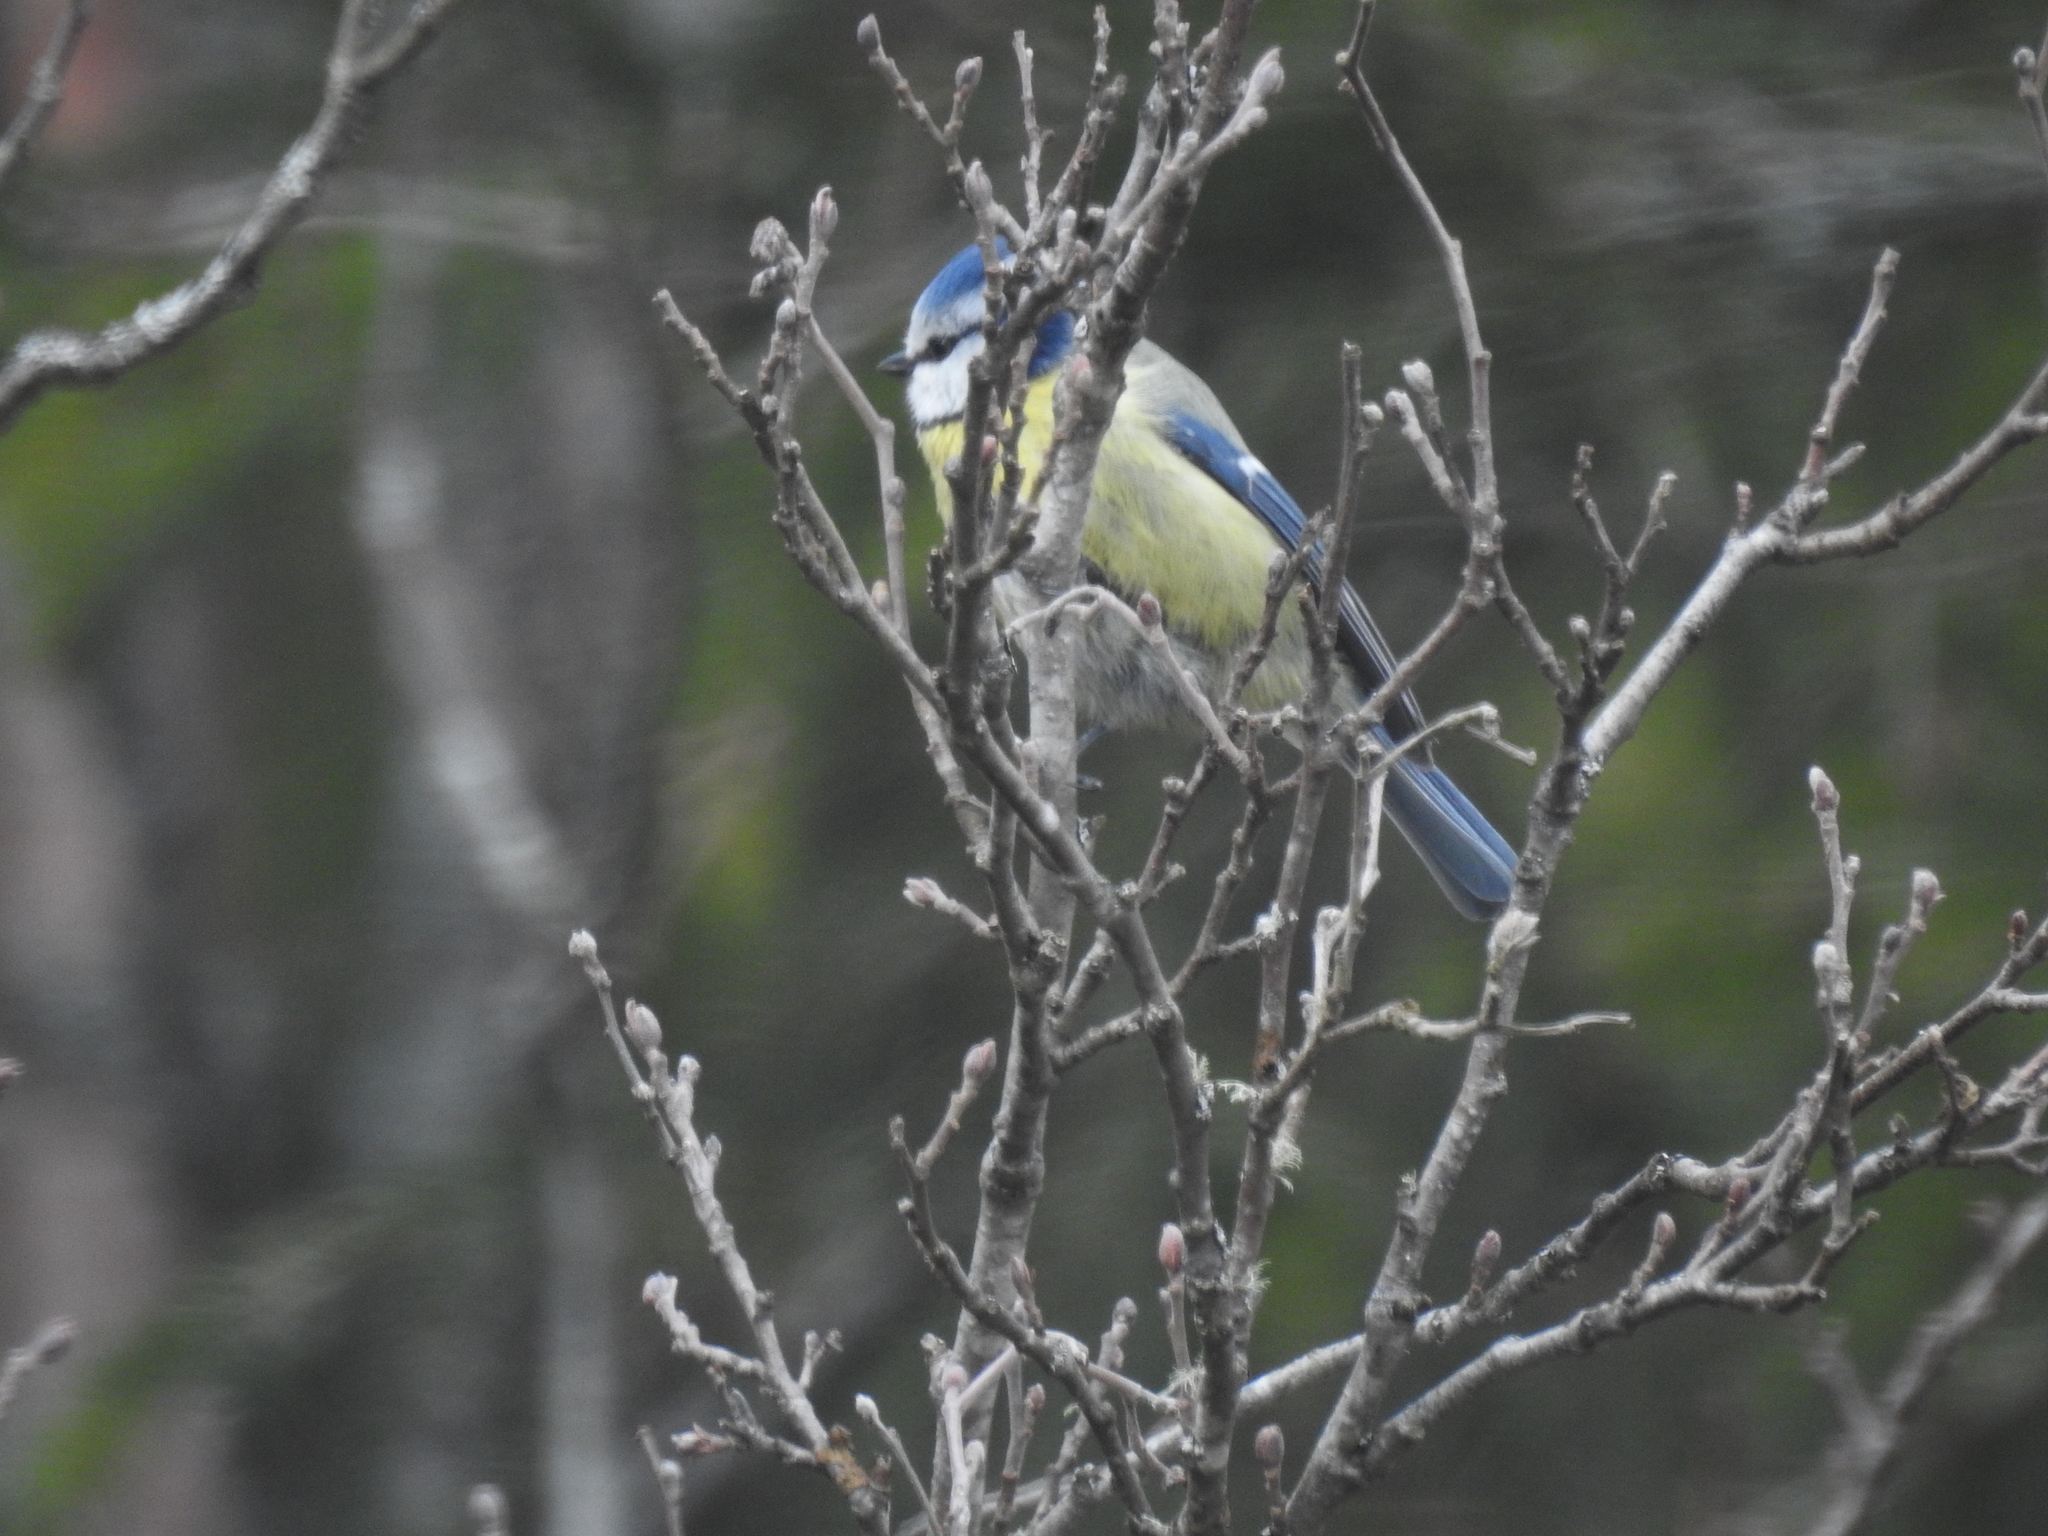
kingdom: Animalia
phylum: Chordata
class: Aves
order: Passeriformes
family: Paridae
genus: Cyanistes
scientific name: Cyanistes caeruleus
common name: Eurasian blue tit
